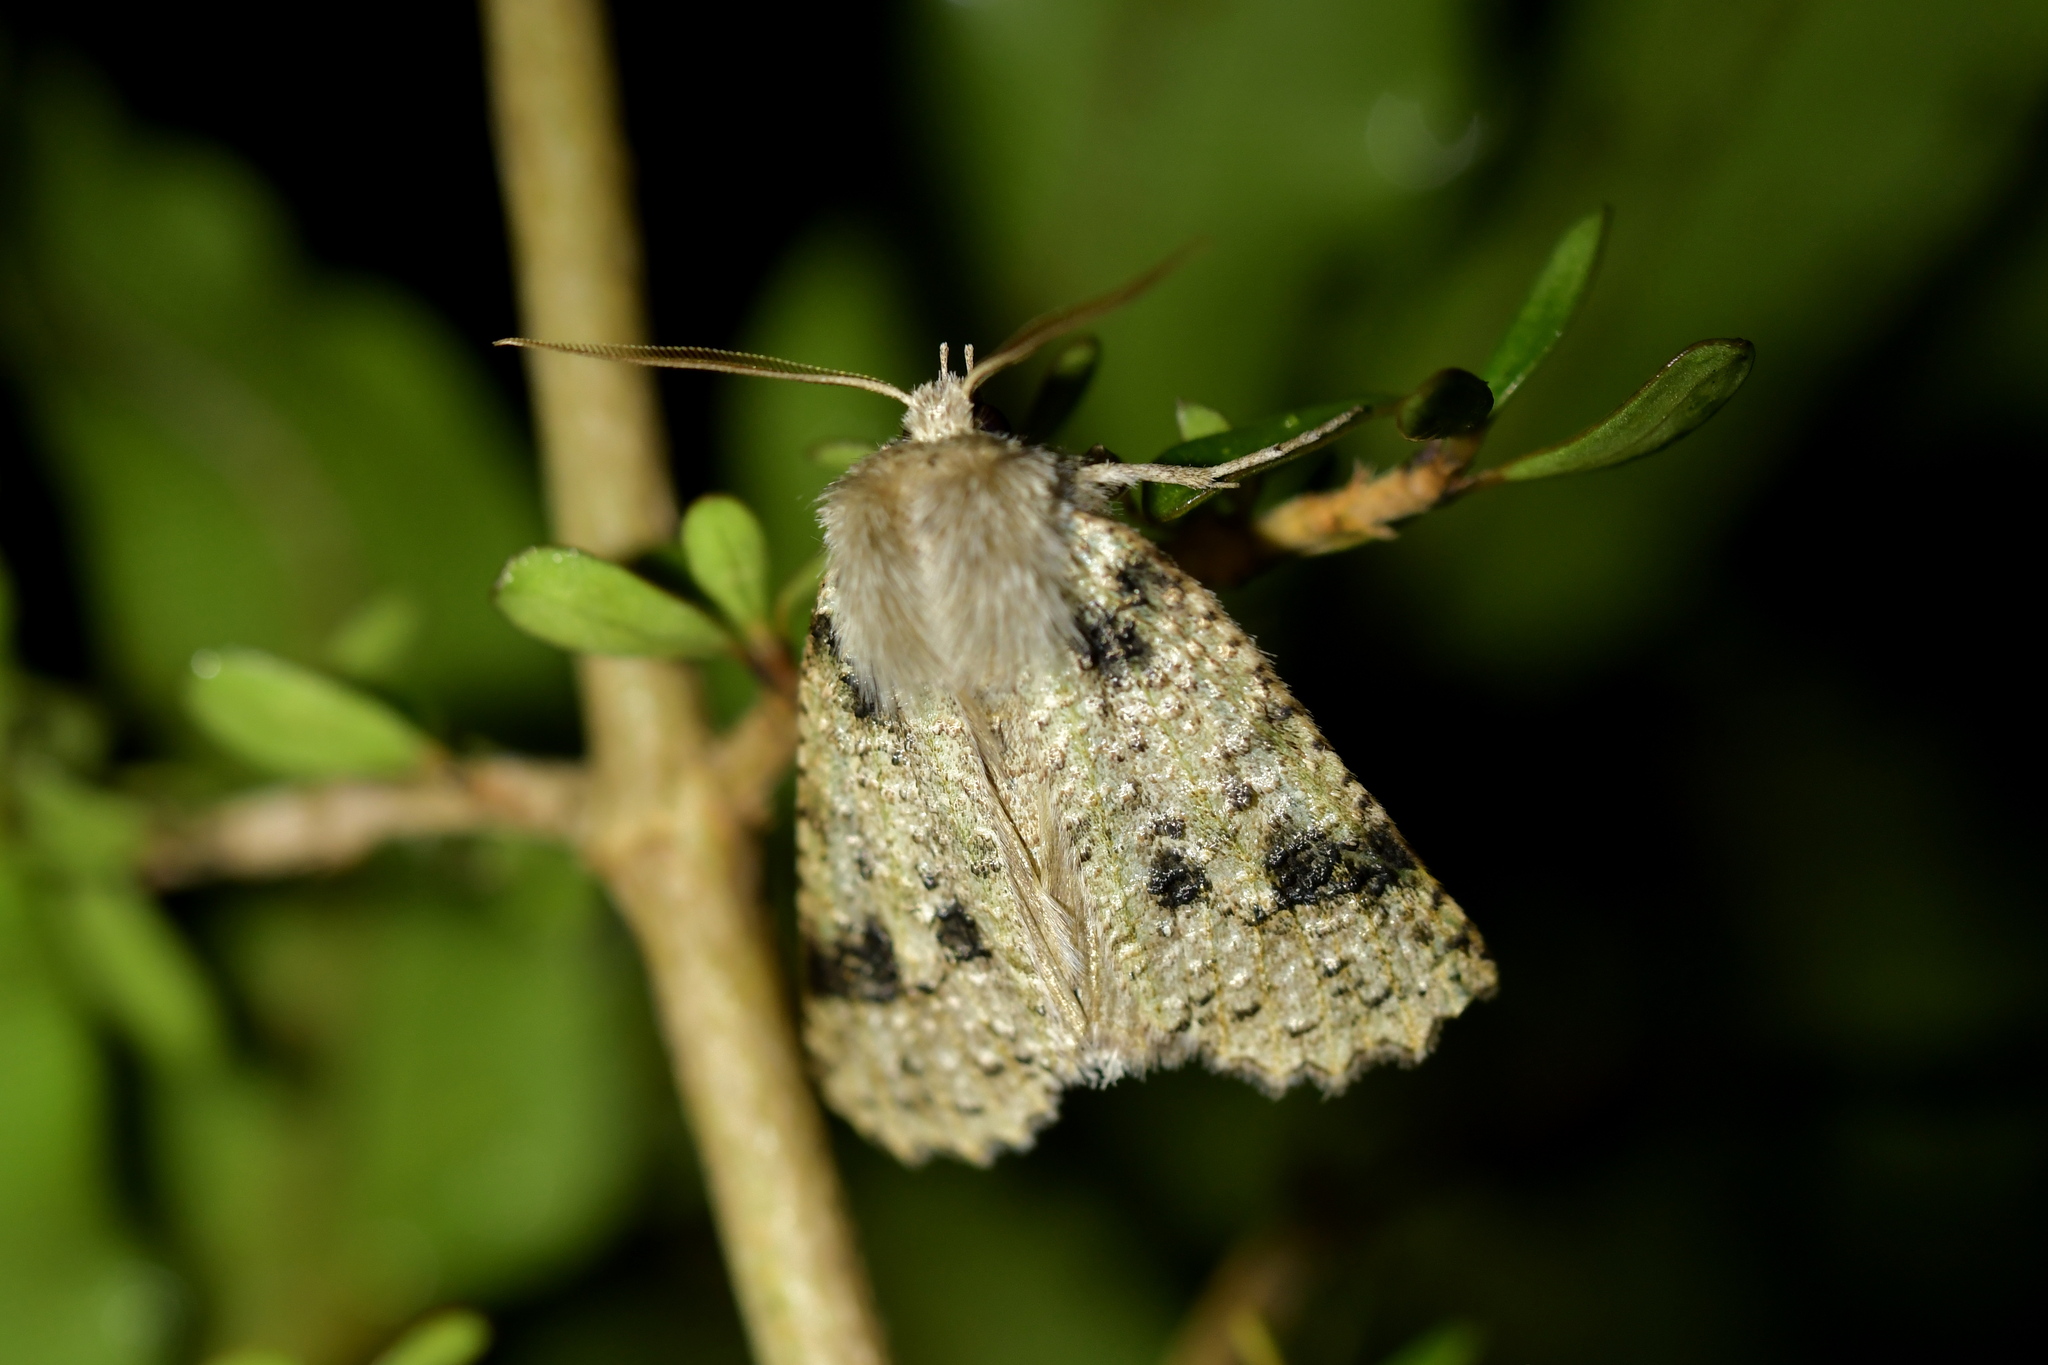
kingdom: Animalia
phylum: Arthropoda
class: Insecta
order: Lepidoptera
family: Geometridae
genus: Declana
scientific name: Declana floccosa
